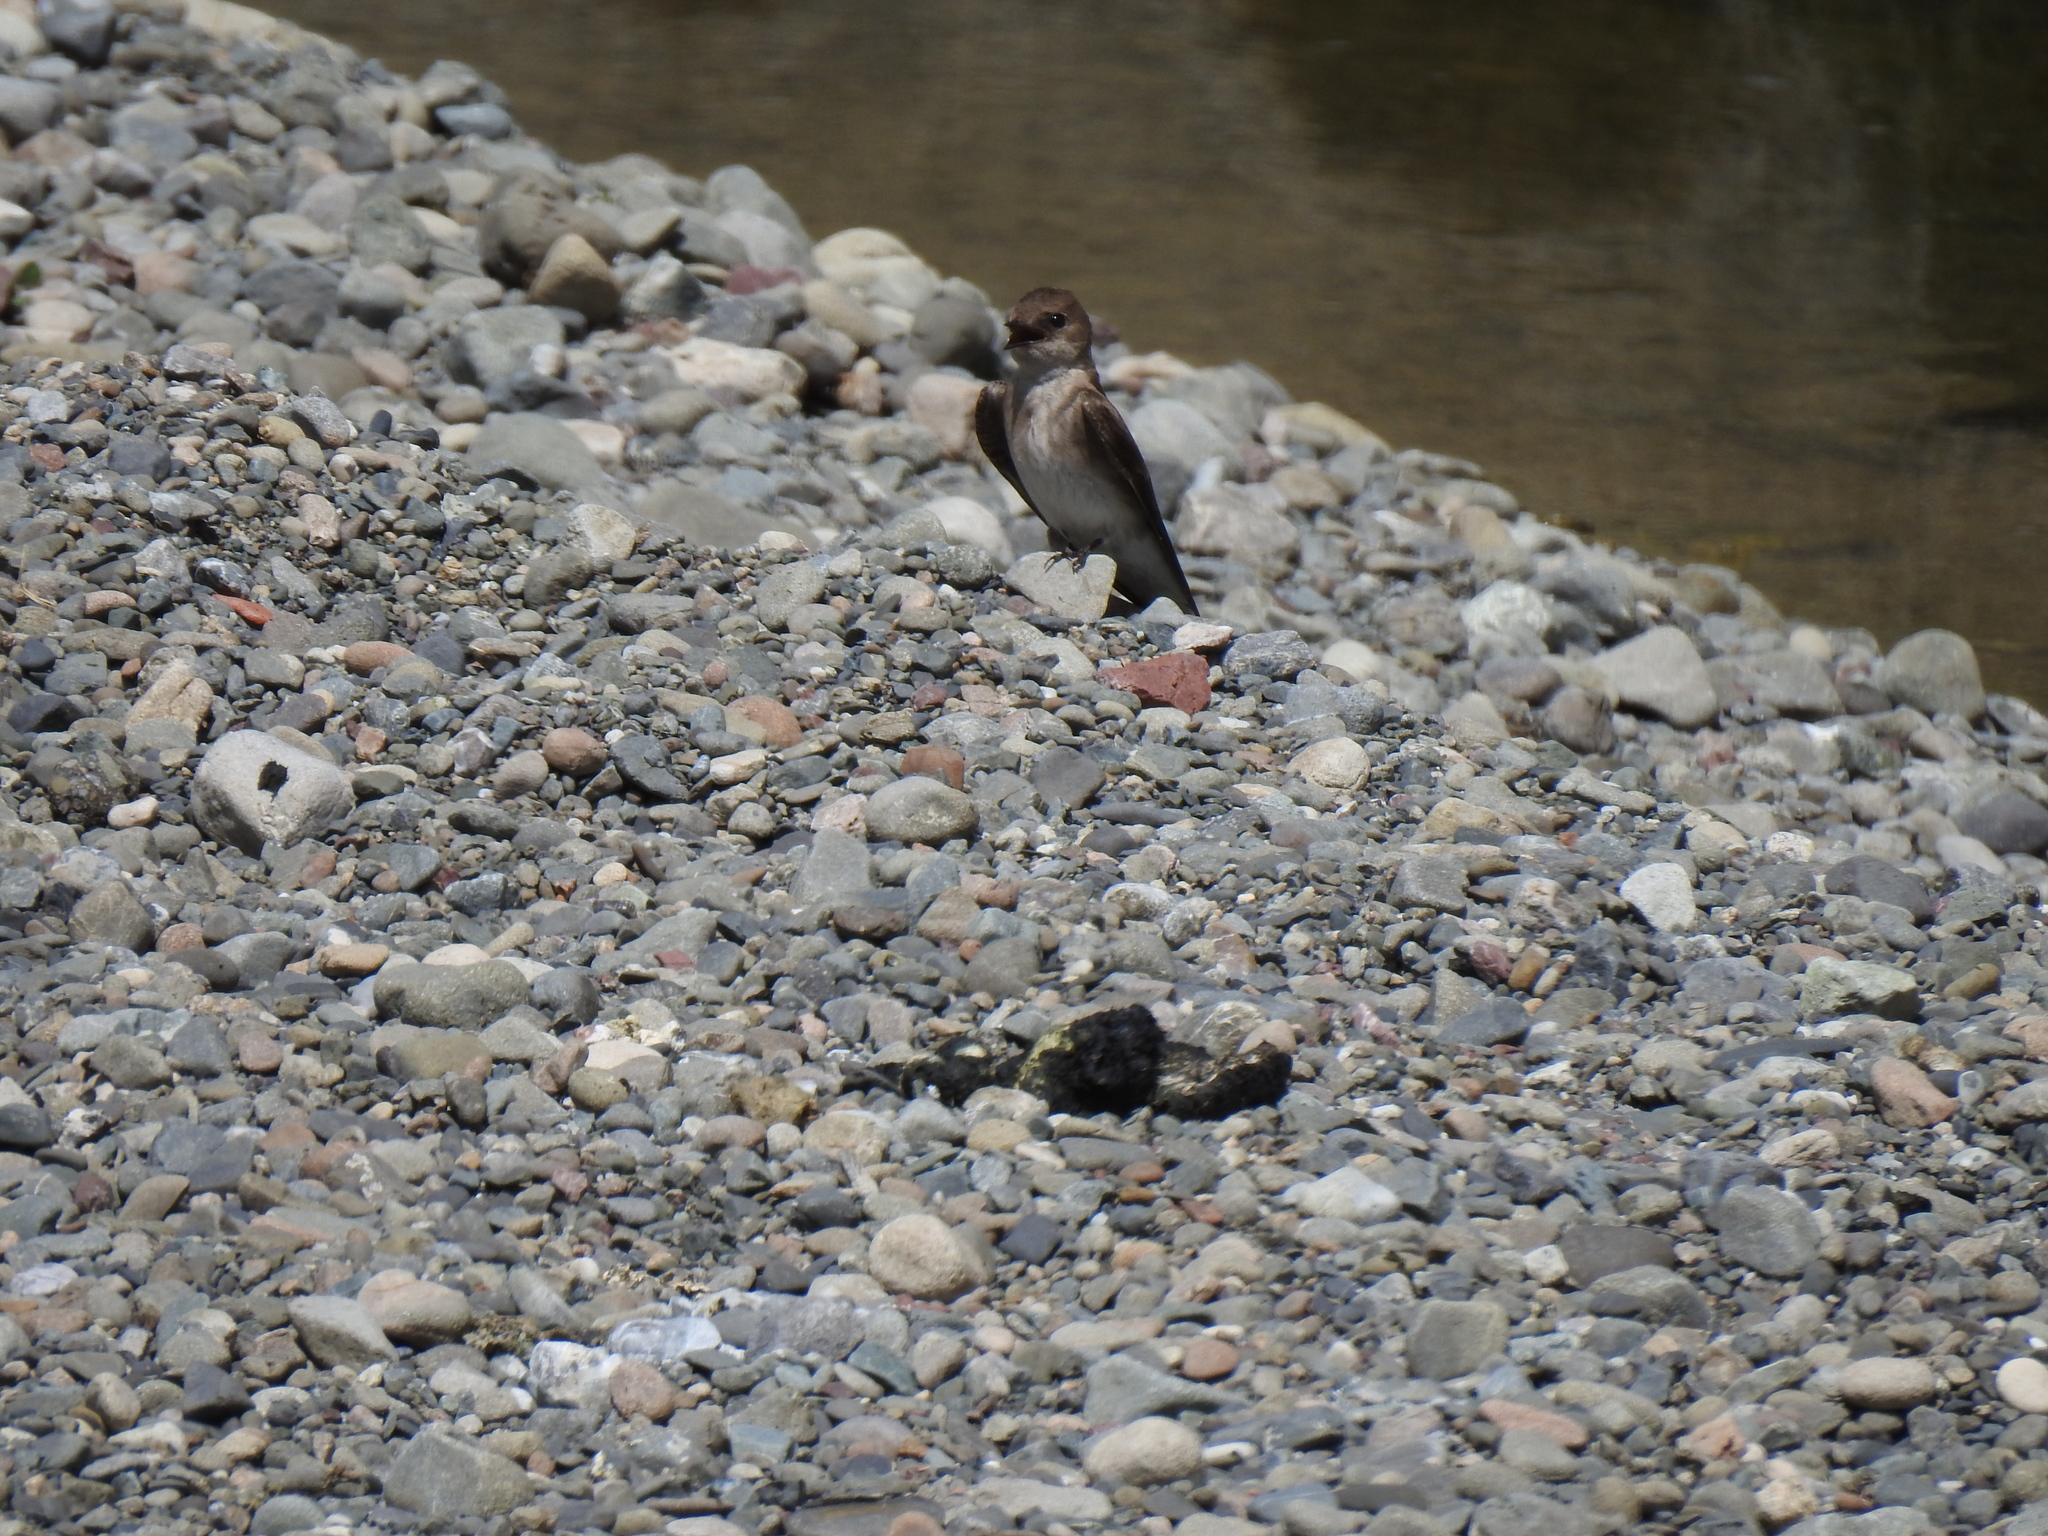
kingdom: Animalia
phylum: Chordata
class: Aves
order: Passeriformes
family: Hirundinidae
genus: Stelgidopteryx
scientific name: Stelgidopteryx serripennis
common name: Northern rough-winged swallow
